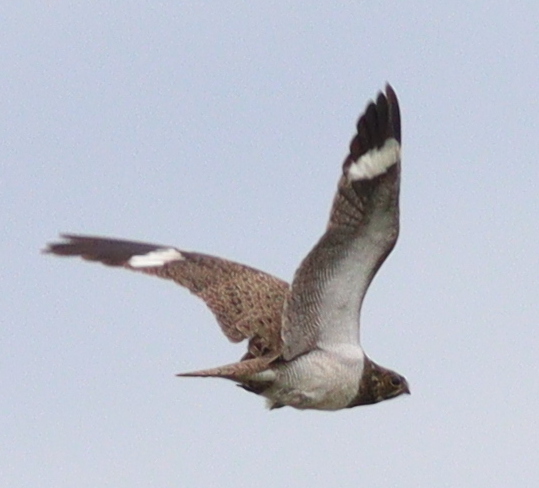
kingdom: Animalia
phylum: Chordata
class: Aves
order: Caprimulgiformes
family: Caprimulgidae
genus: Chordeiles
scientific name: Chordeiles nacunda
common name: Nacunda nighthawk
